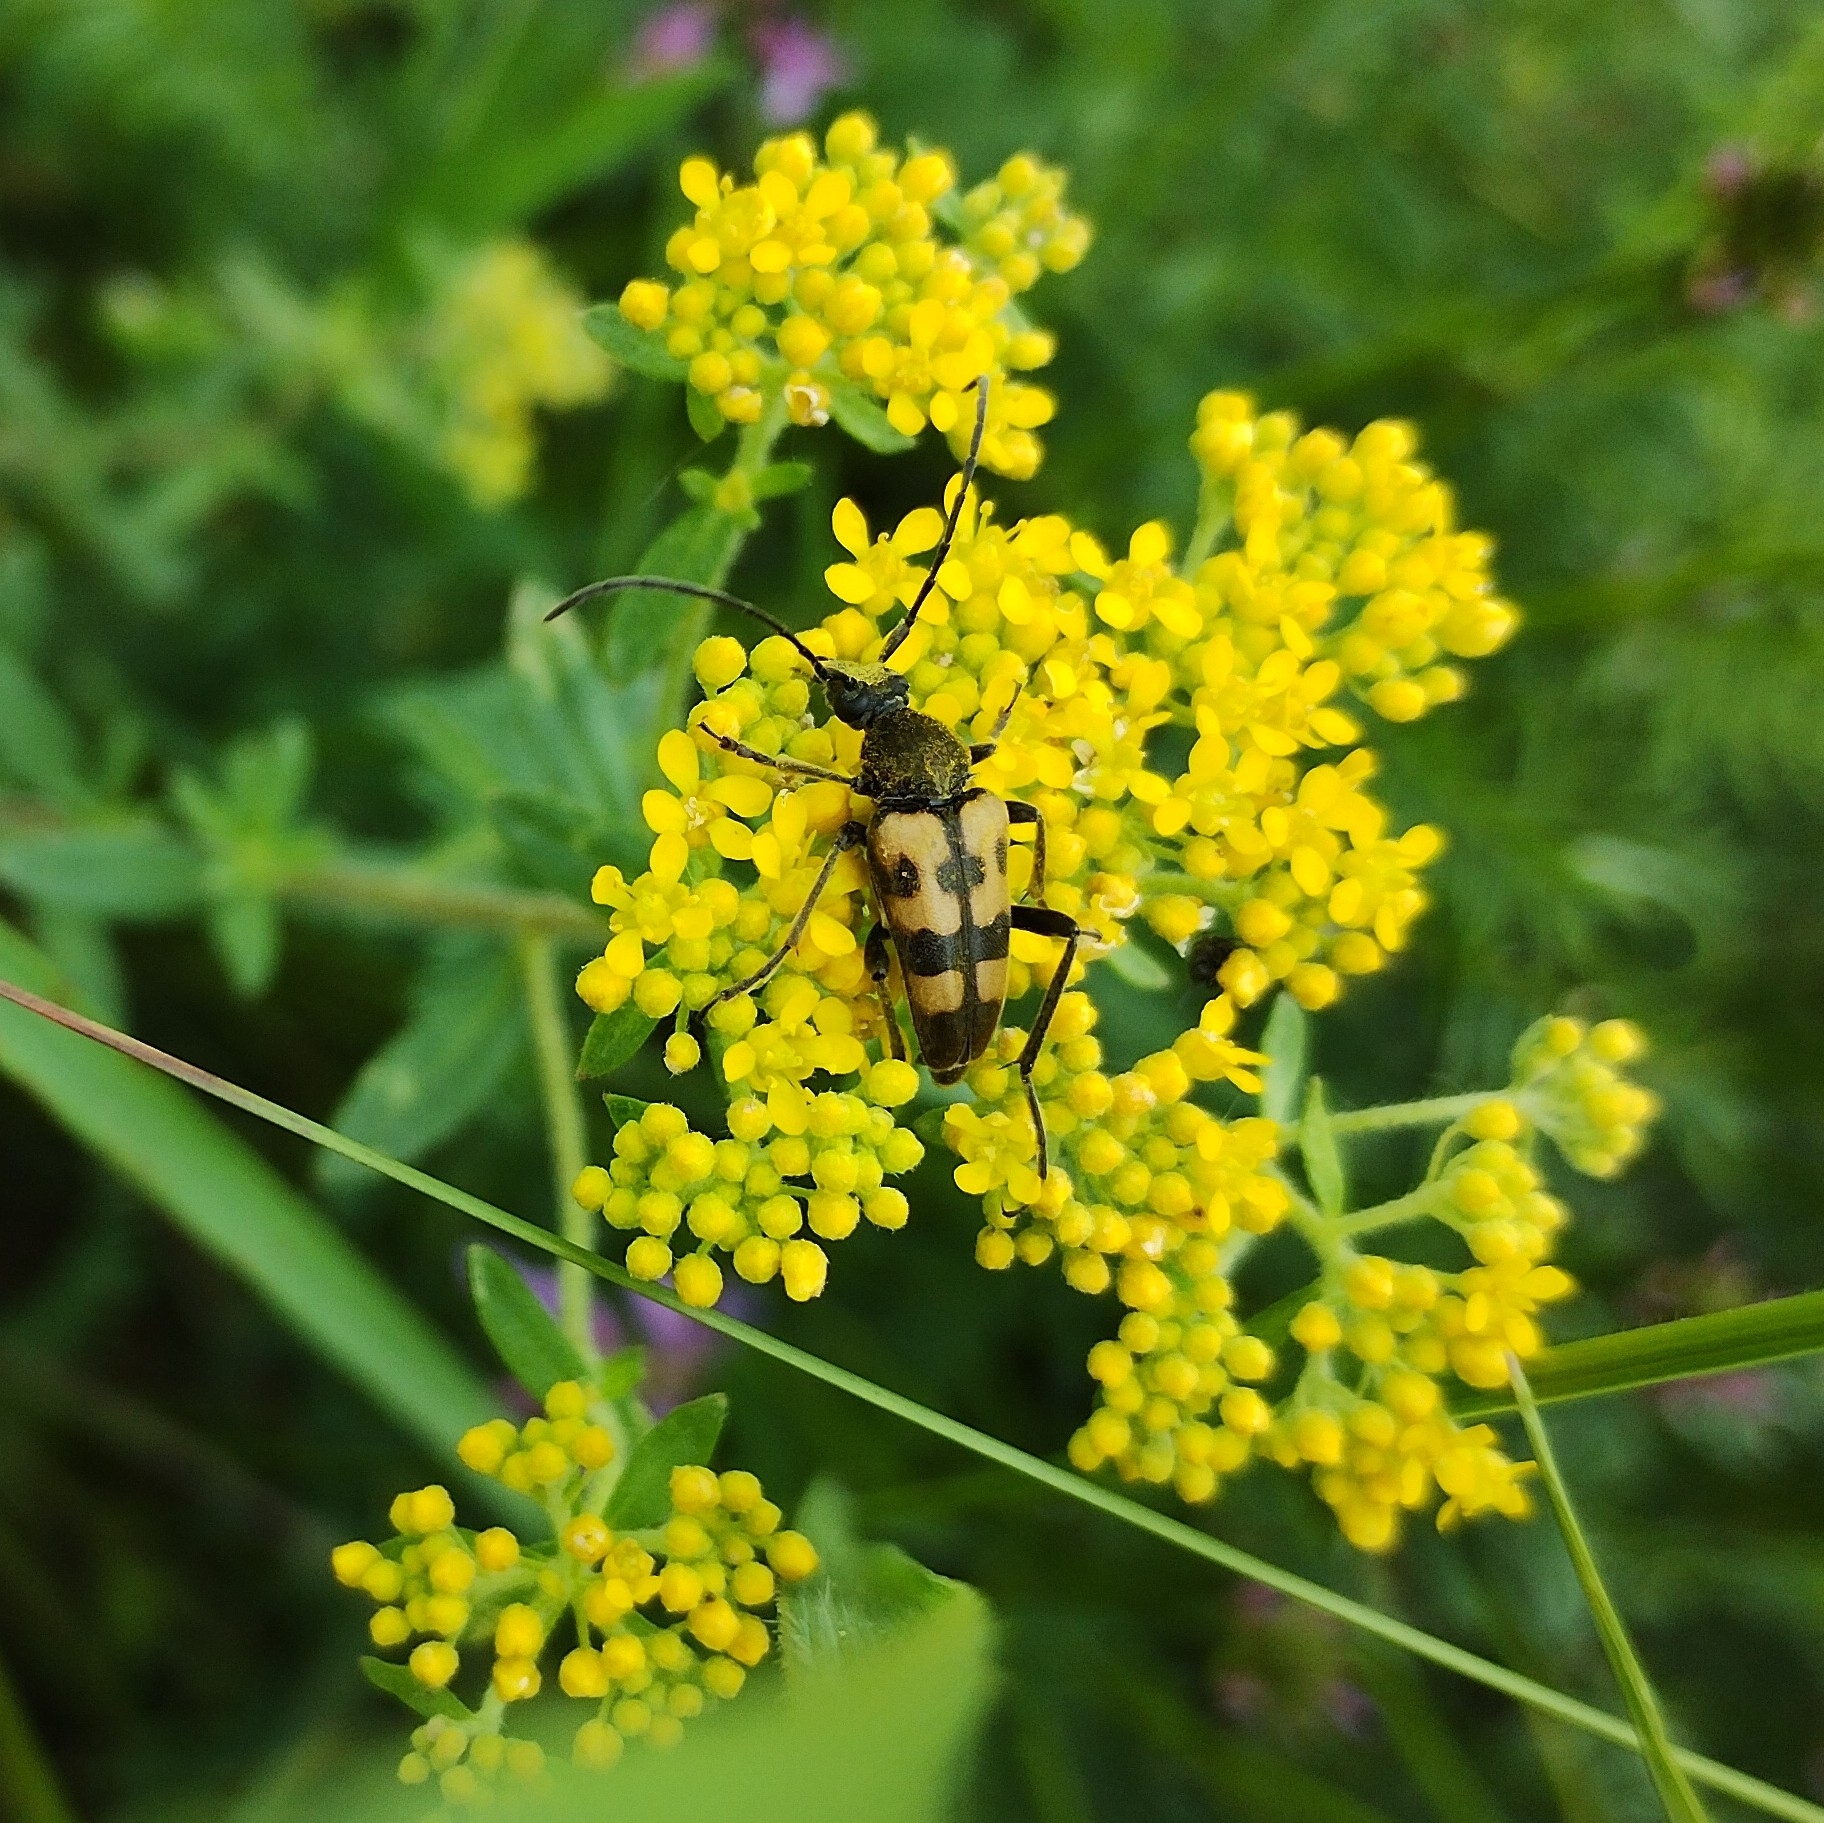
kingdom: Animalia
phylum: Arthropoda
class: Insecta
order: Coleoptera
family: Cerambycidae
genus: Pachytodes
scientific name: Pachytodes
